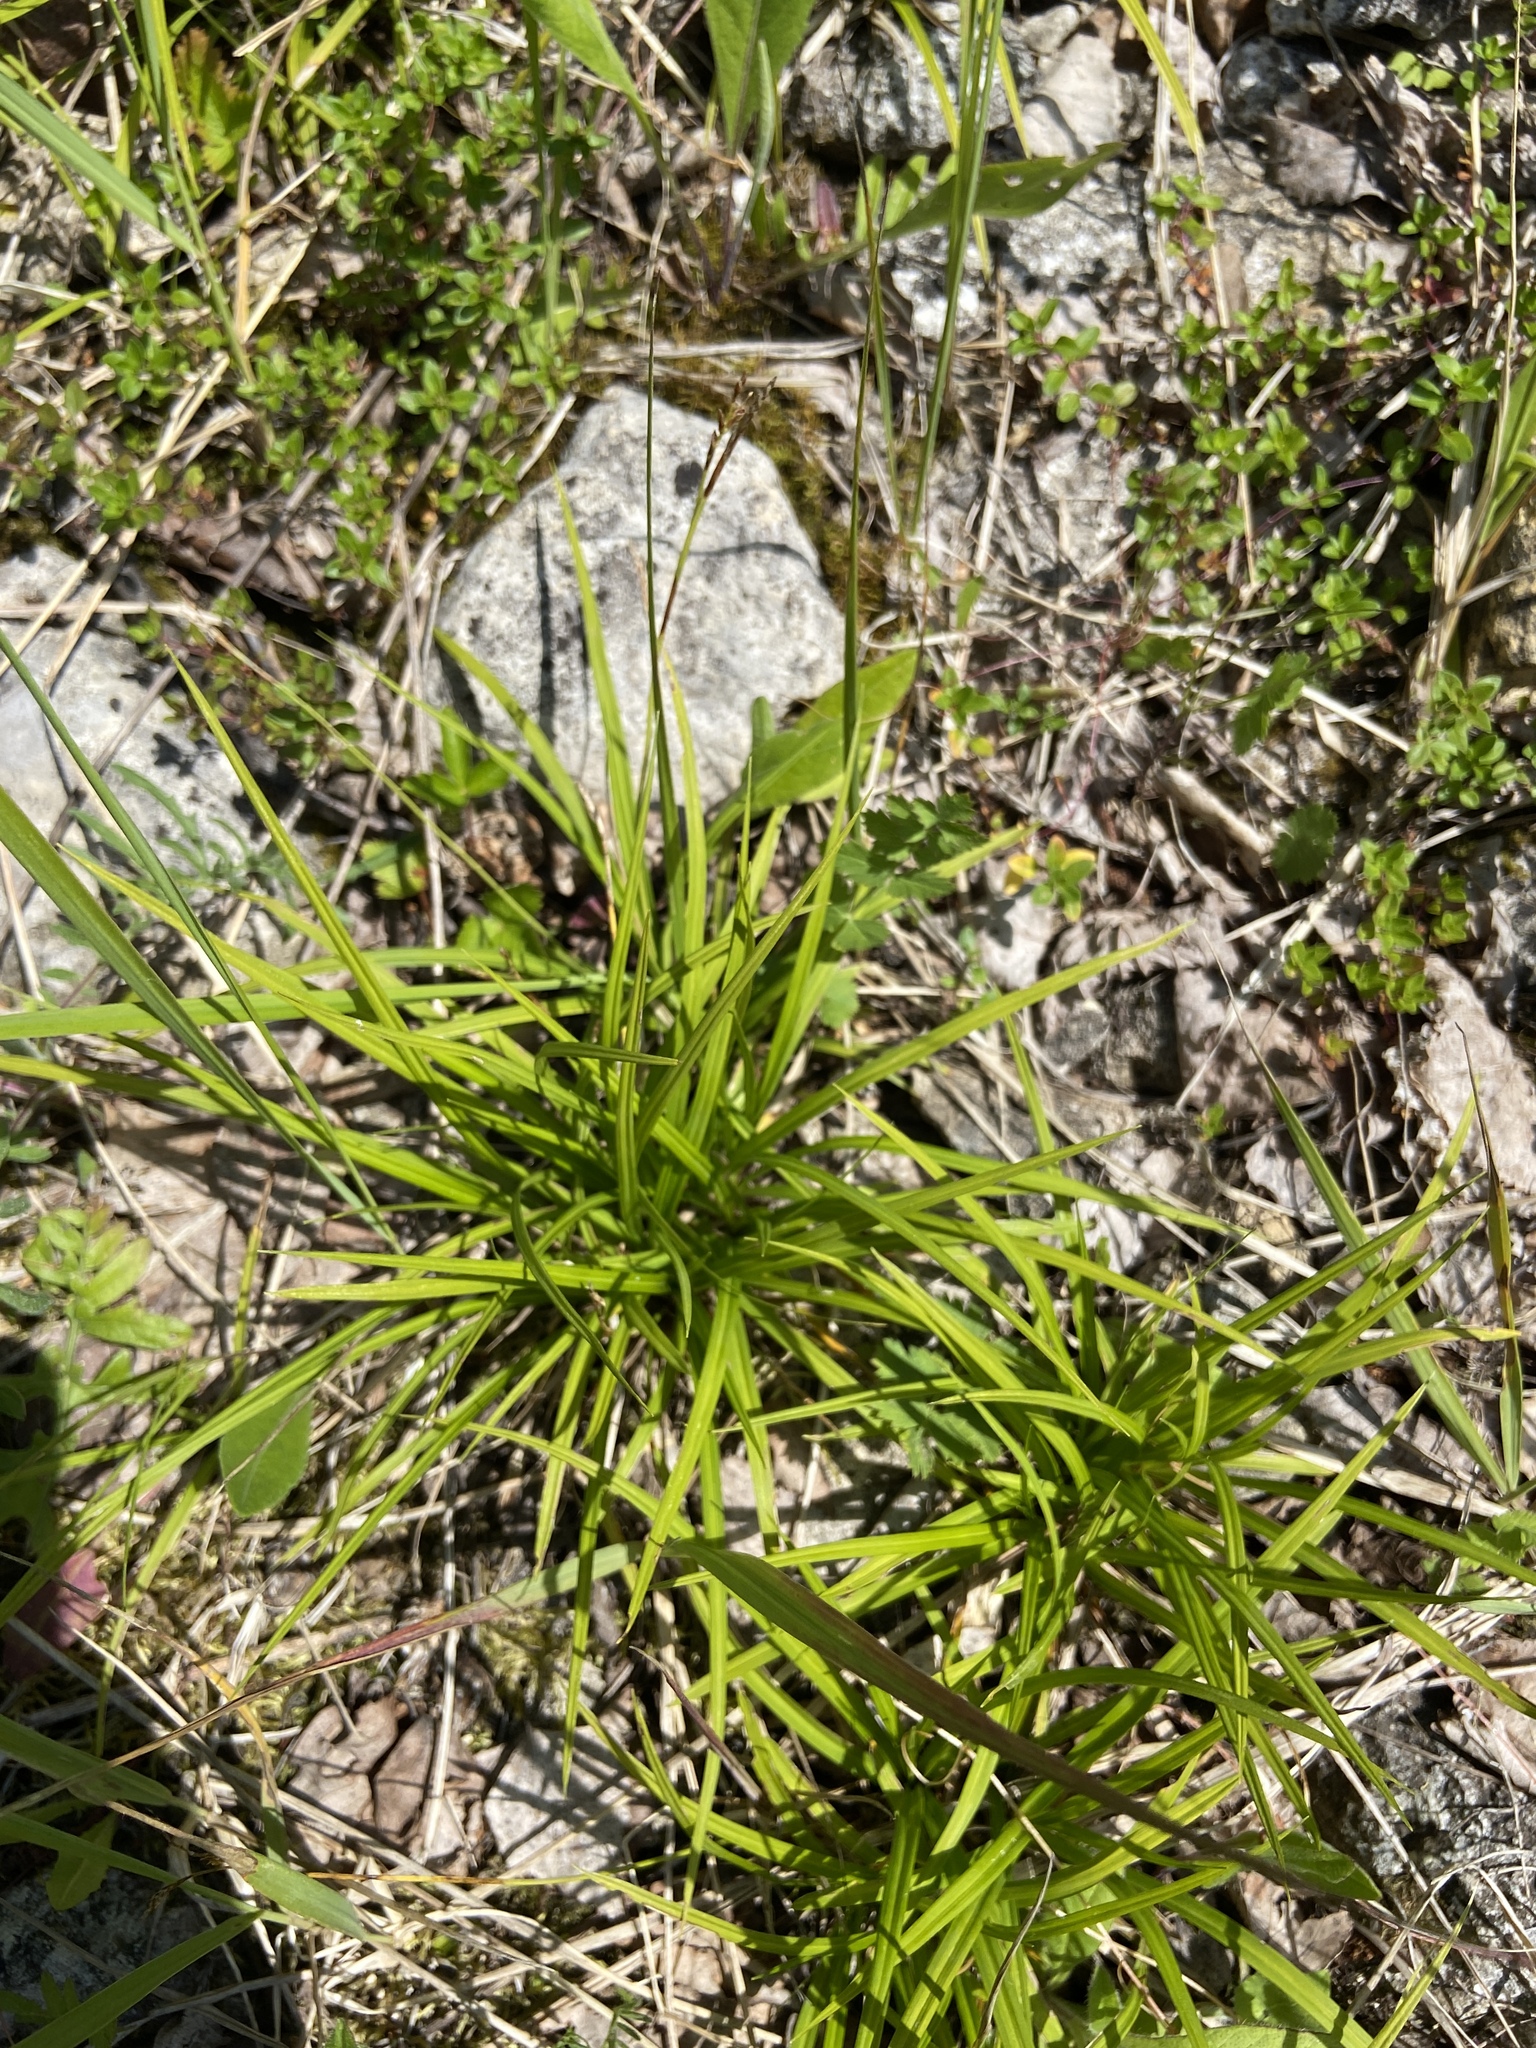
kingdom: Plantae
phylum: Tracheophyta
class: Liliopsida
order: Poales
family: Cyperaceae
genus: Carex
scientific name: Carex digitata
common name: Fingered sedge
